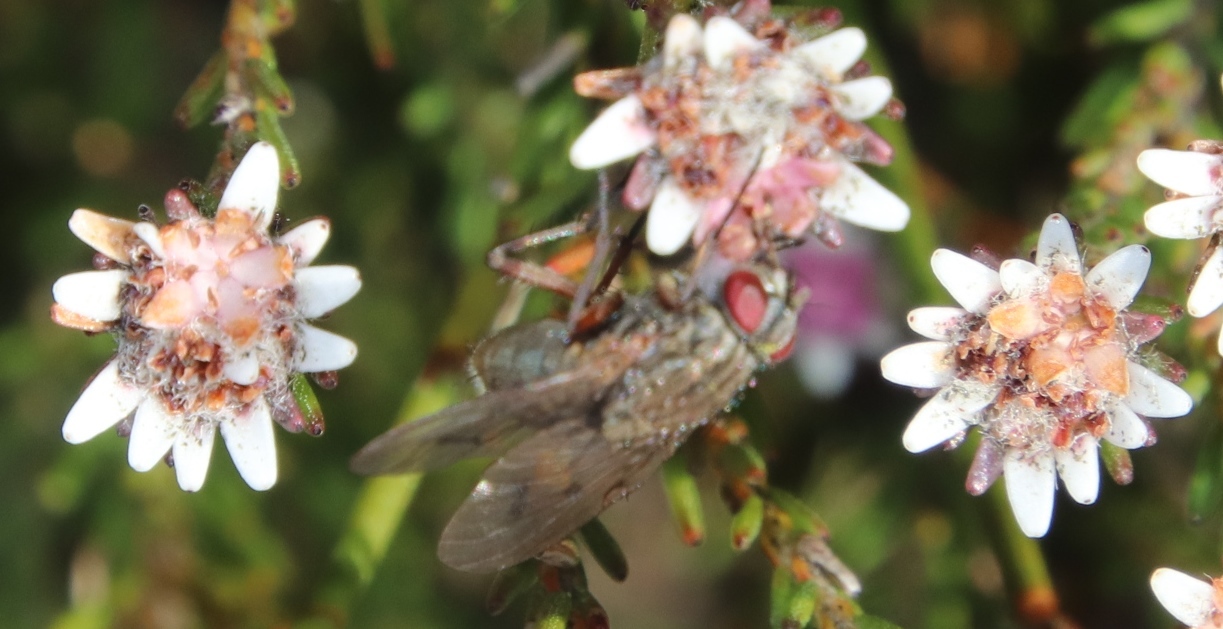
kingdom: Plantae
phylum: Tracheophyta
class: Magnoliopsida
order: Bruniales
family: Bruniaceae
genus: Staavia
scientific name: Staavia radiata
